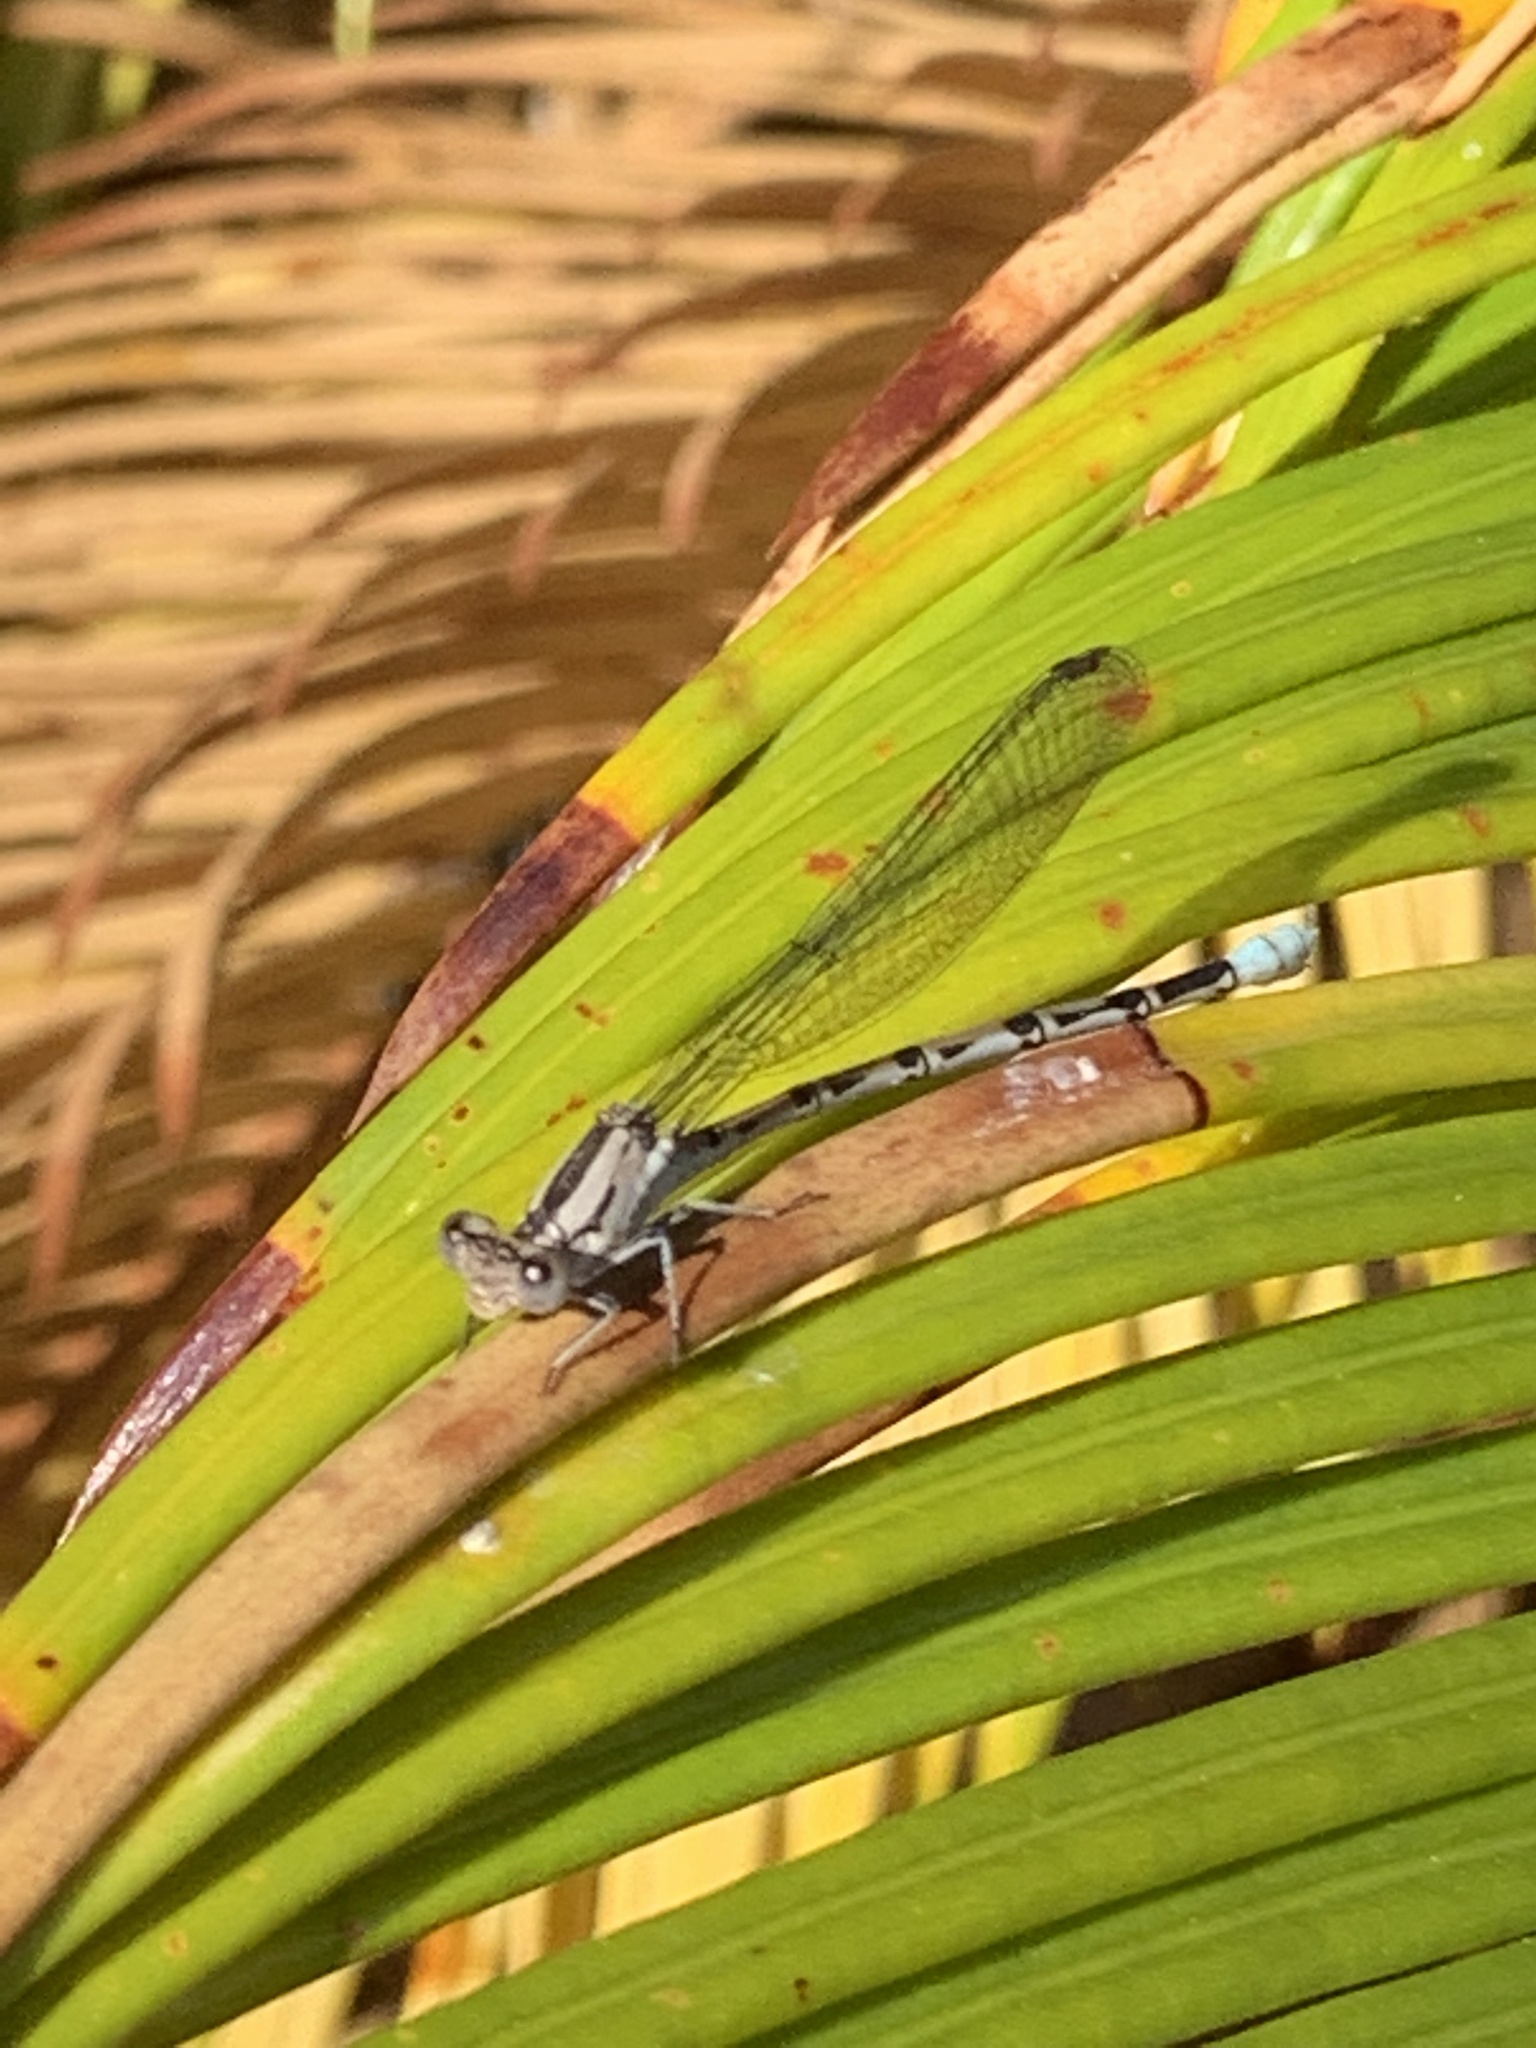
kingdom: Animalia
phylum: Arthropoda
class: Insecta
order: Odonata
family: Coenagrionidae
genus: Argia
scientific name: Argia vivida
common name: Vivid dancer
